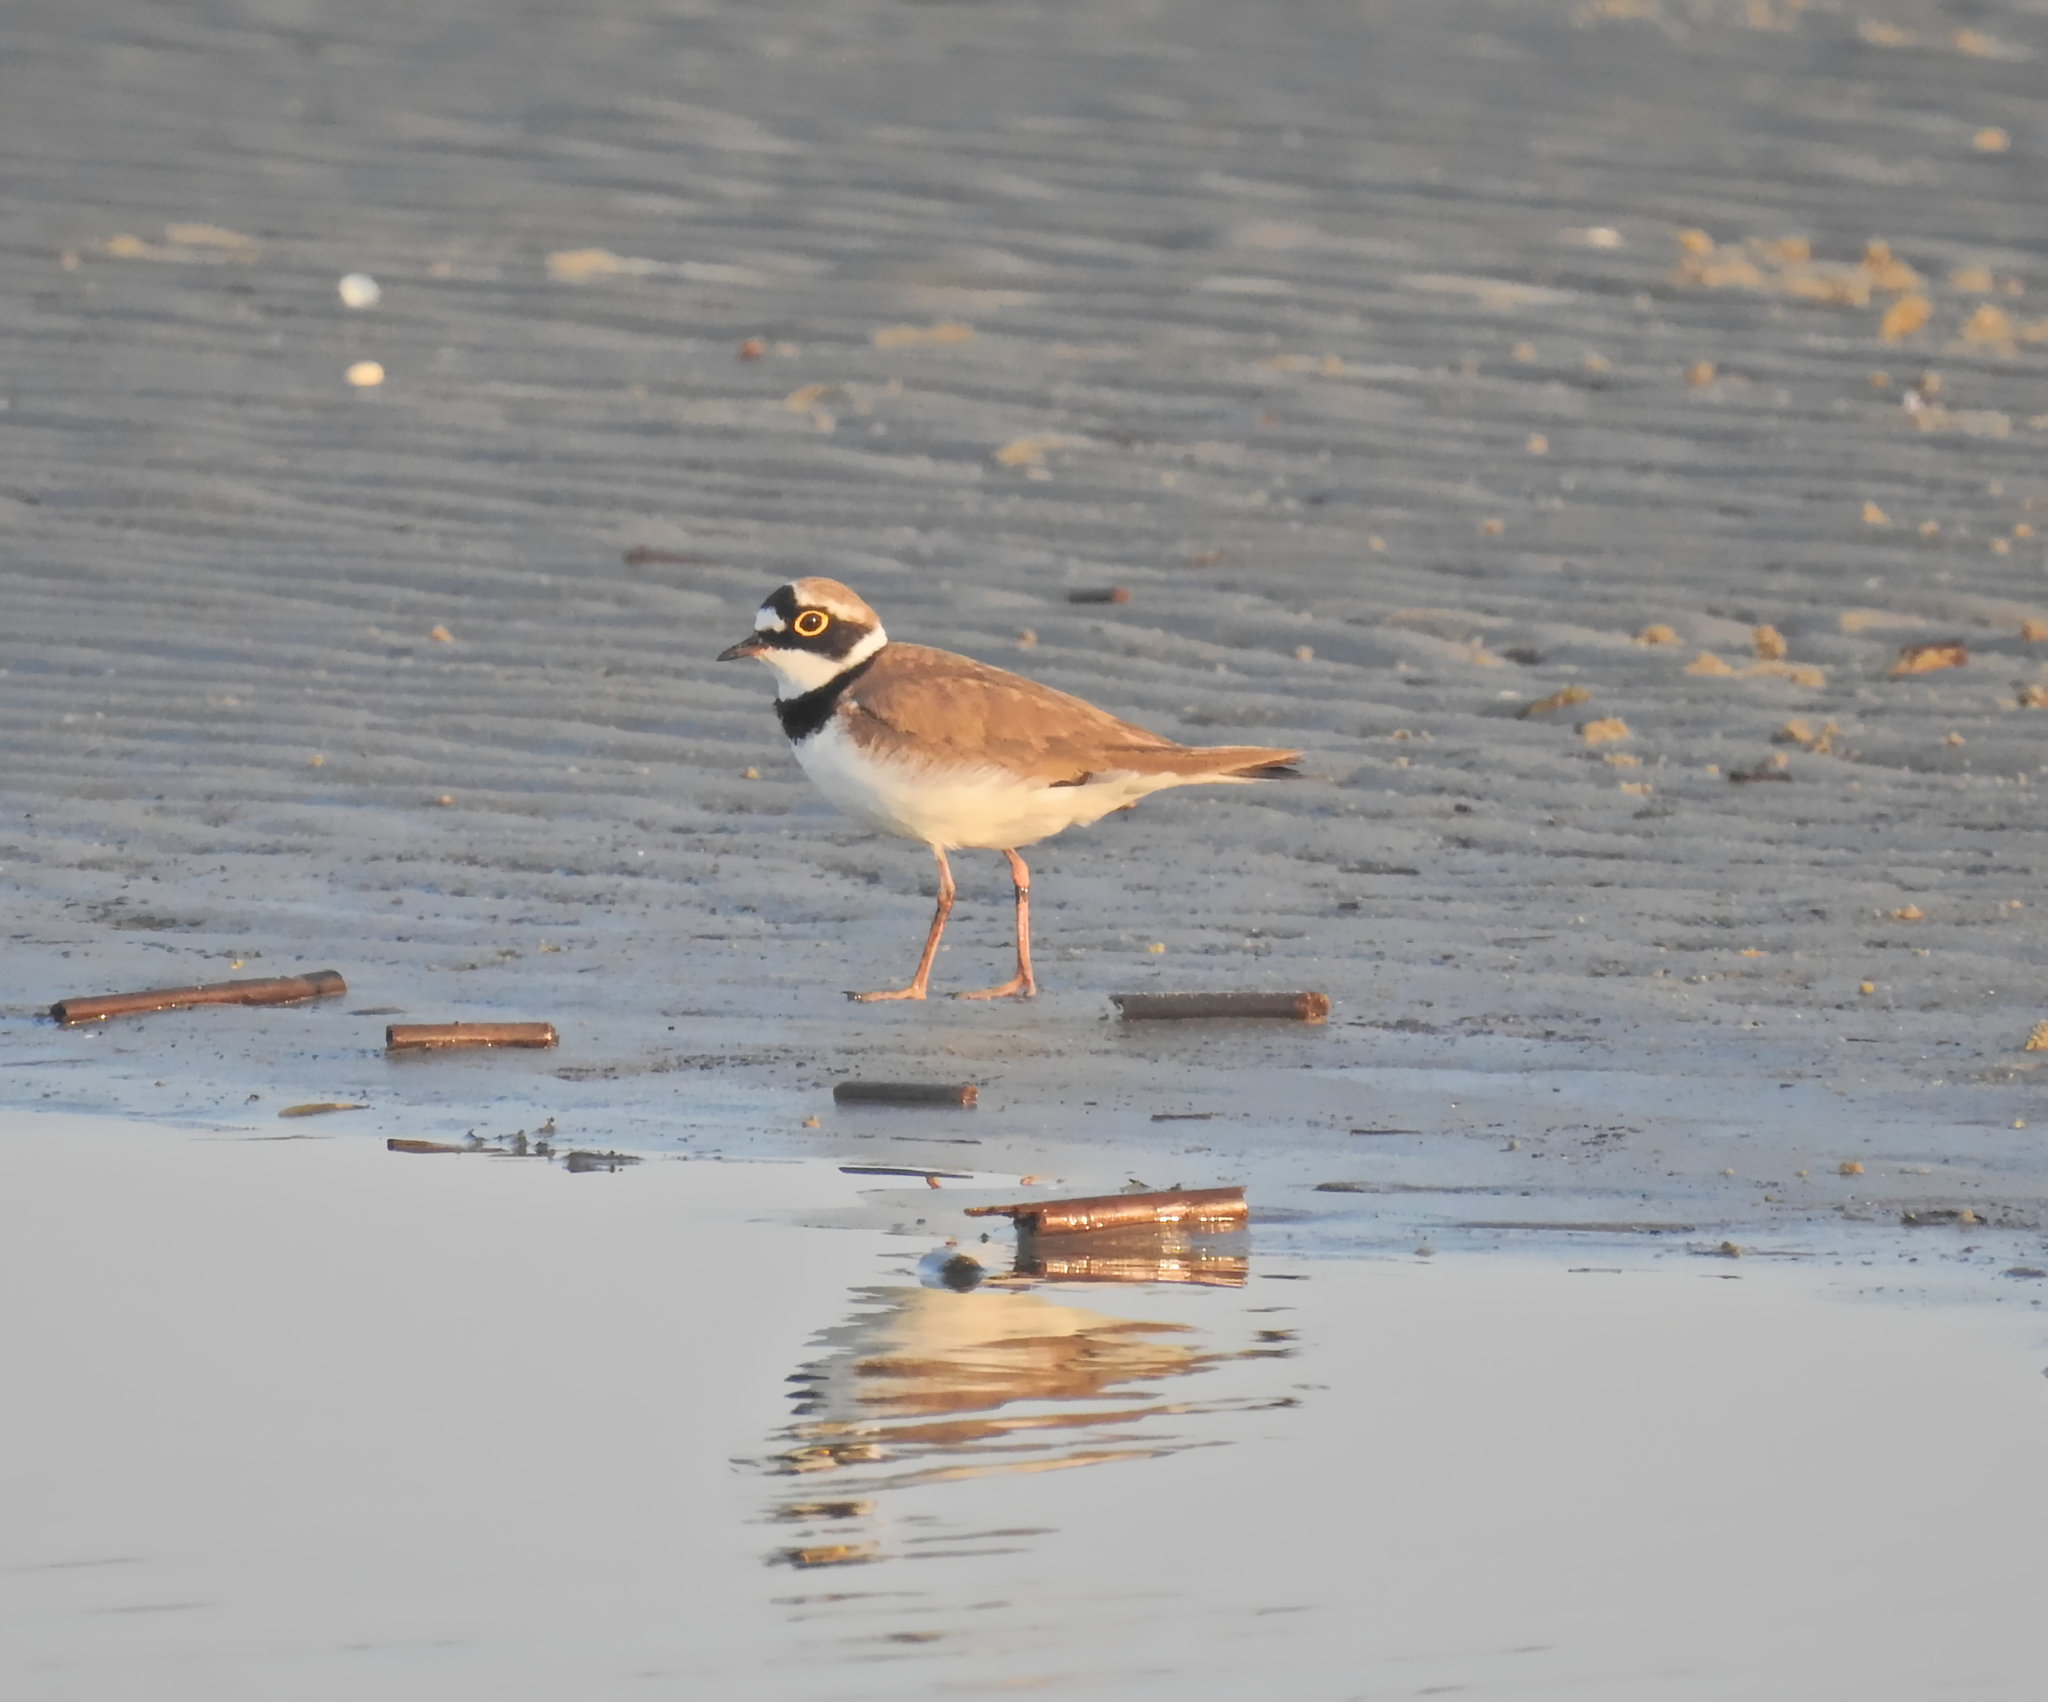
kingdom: Animalia
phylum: Chordata
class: Aves
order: Charadriiformes
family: Charadriidae
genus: Charadrius
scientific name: Charadrius dubius
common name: Little ringed plover
